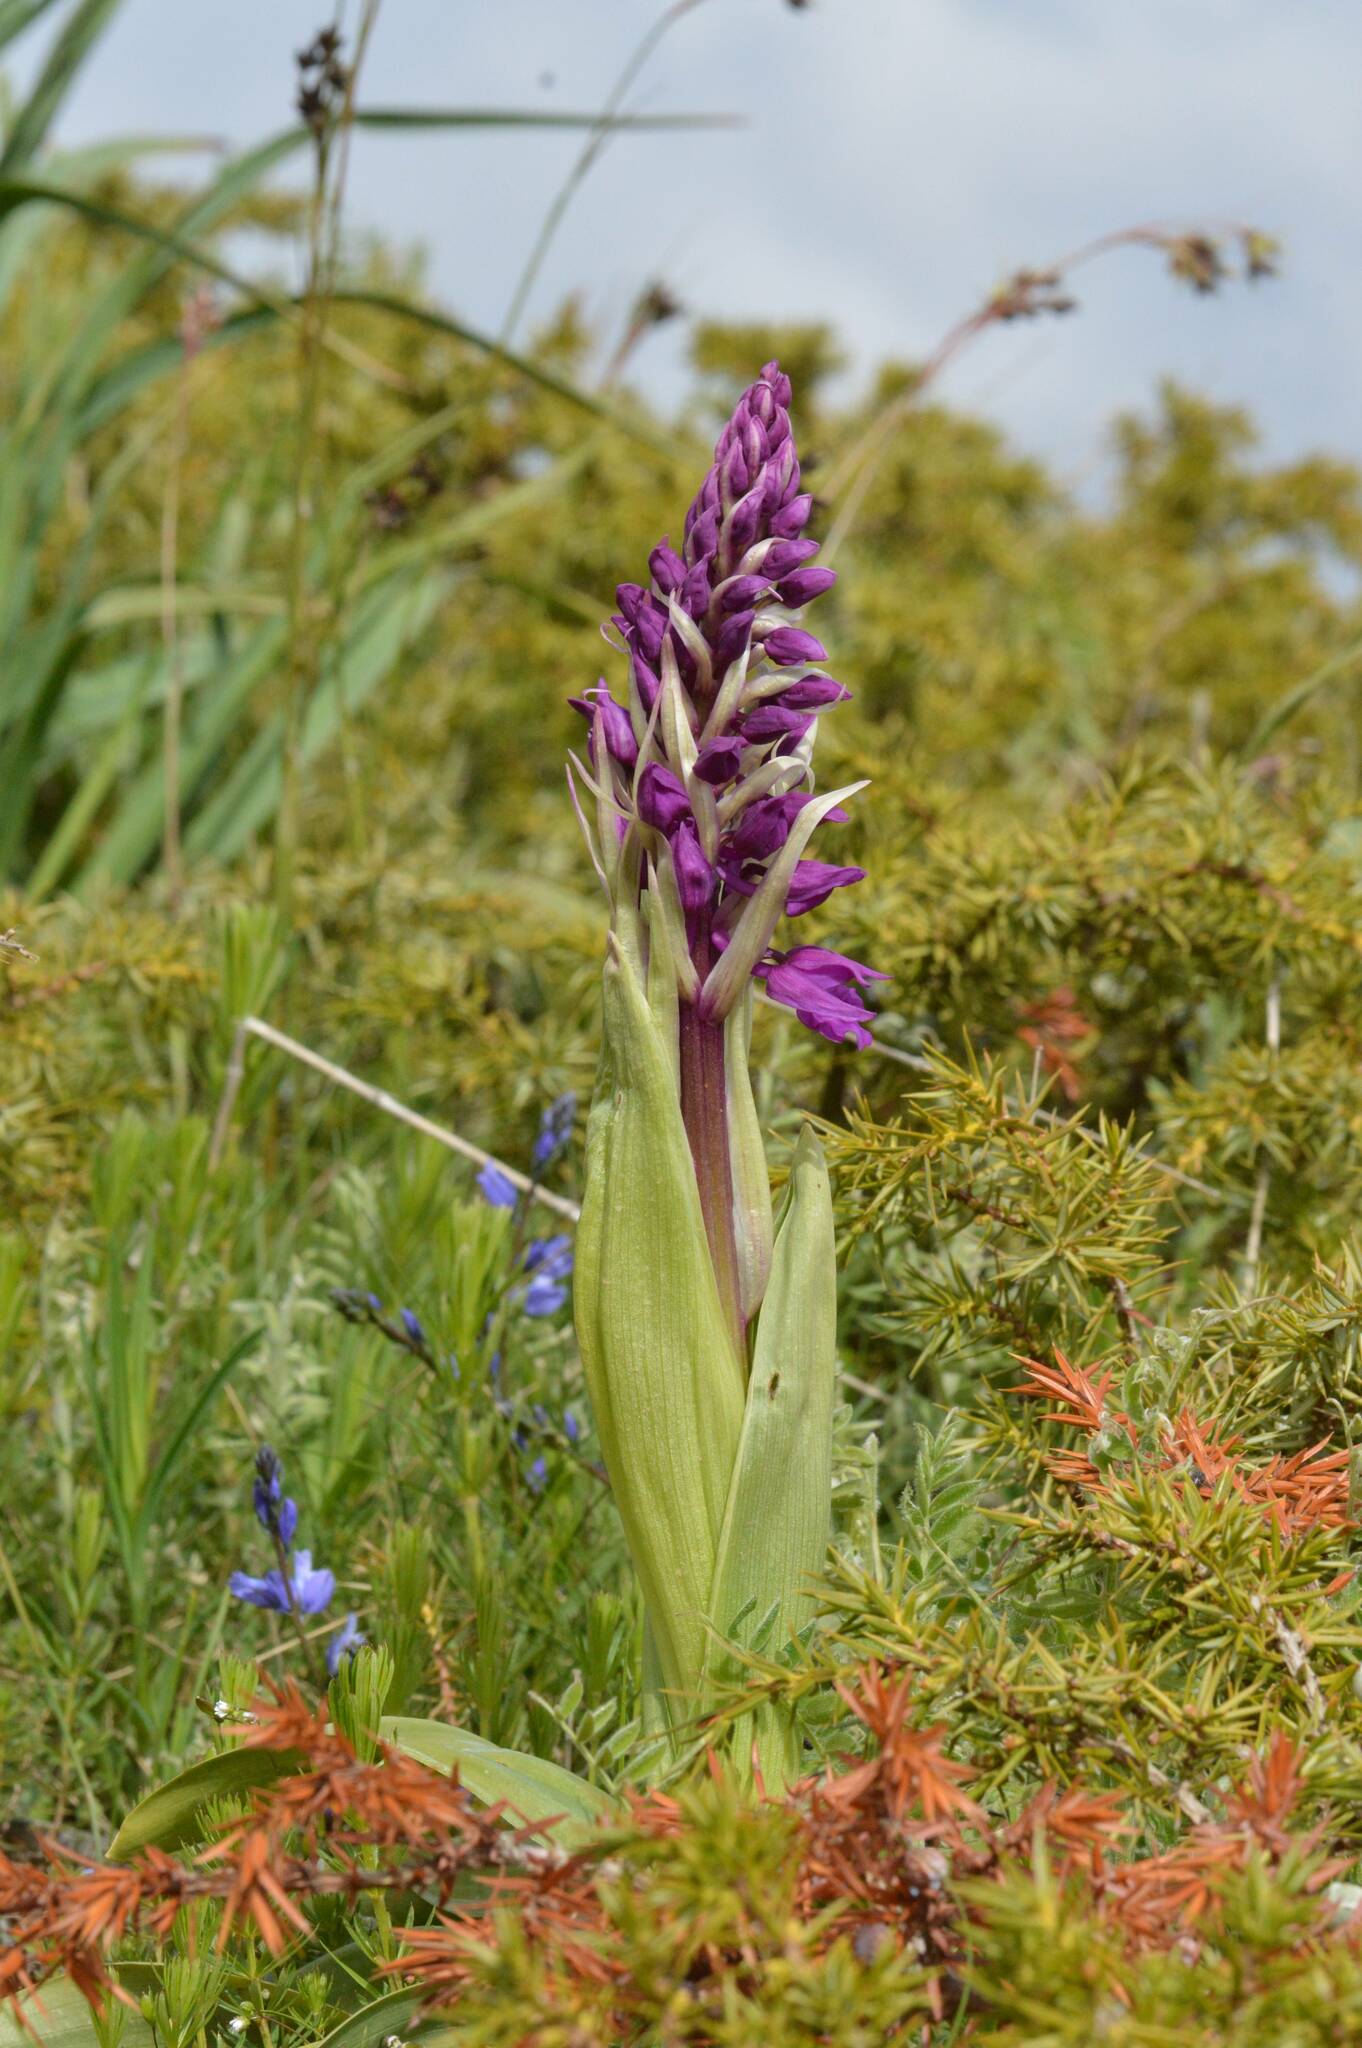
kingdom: Plantae
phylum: Tracheophyta
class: Liliopsida
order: Asparagales
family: Orchidaceae
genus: Himantoglossum
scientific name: Himantoglossum robertianum
